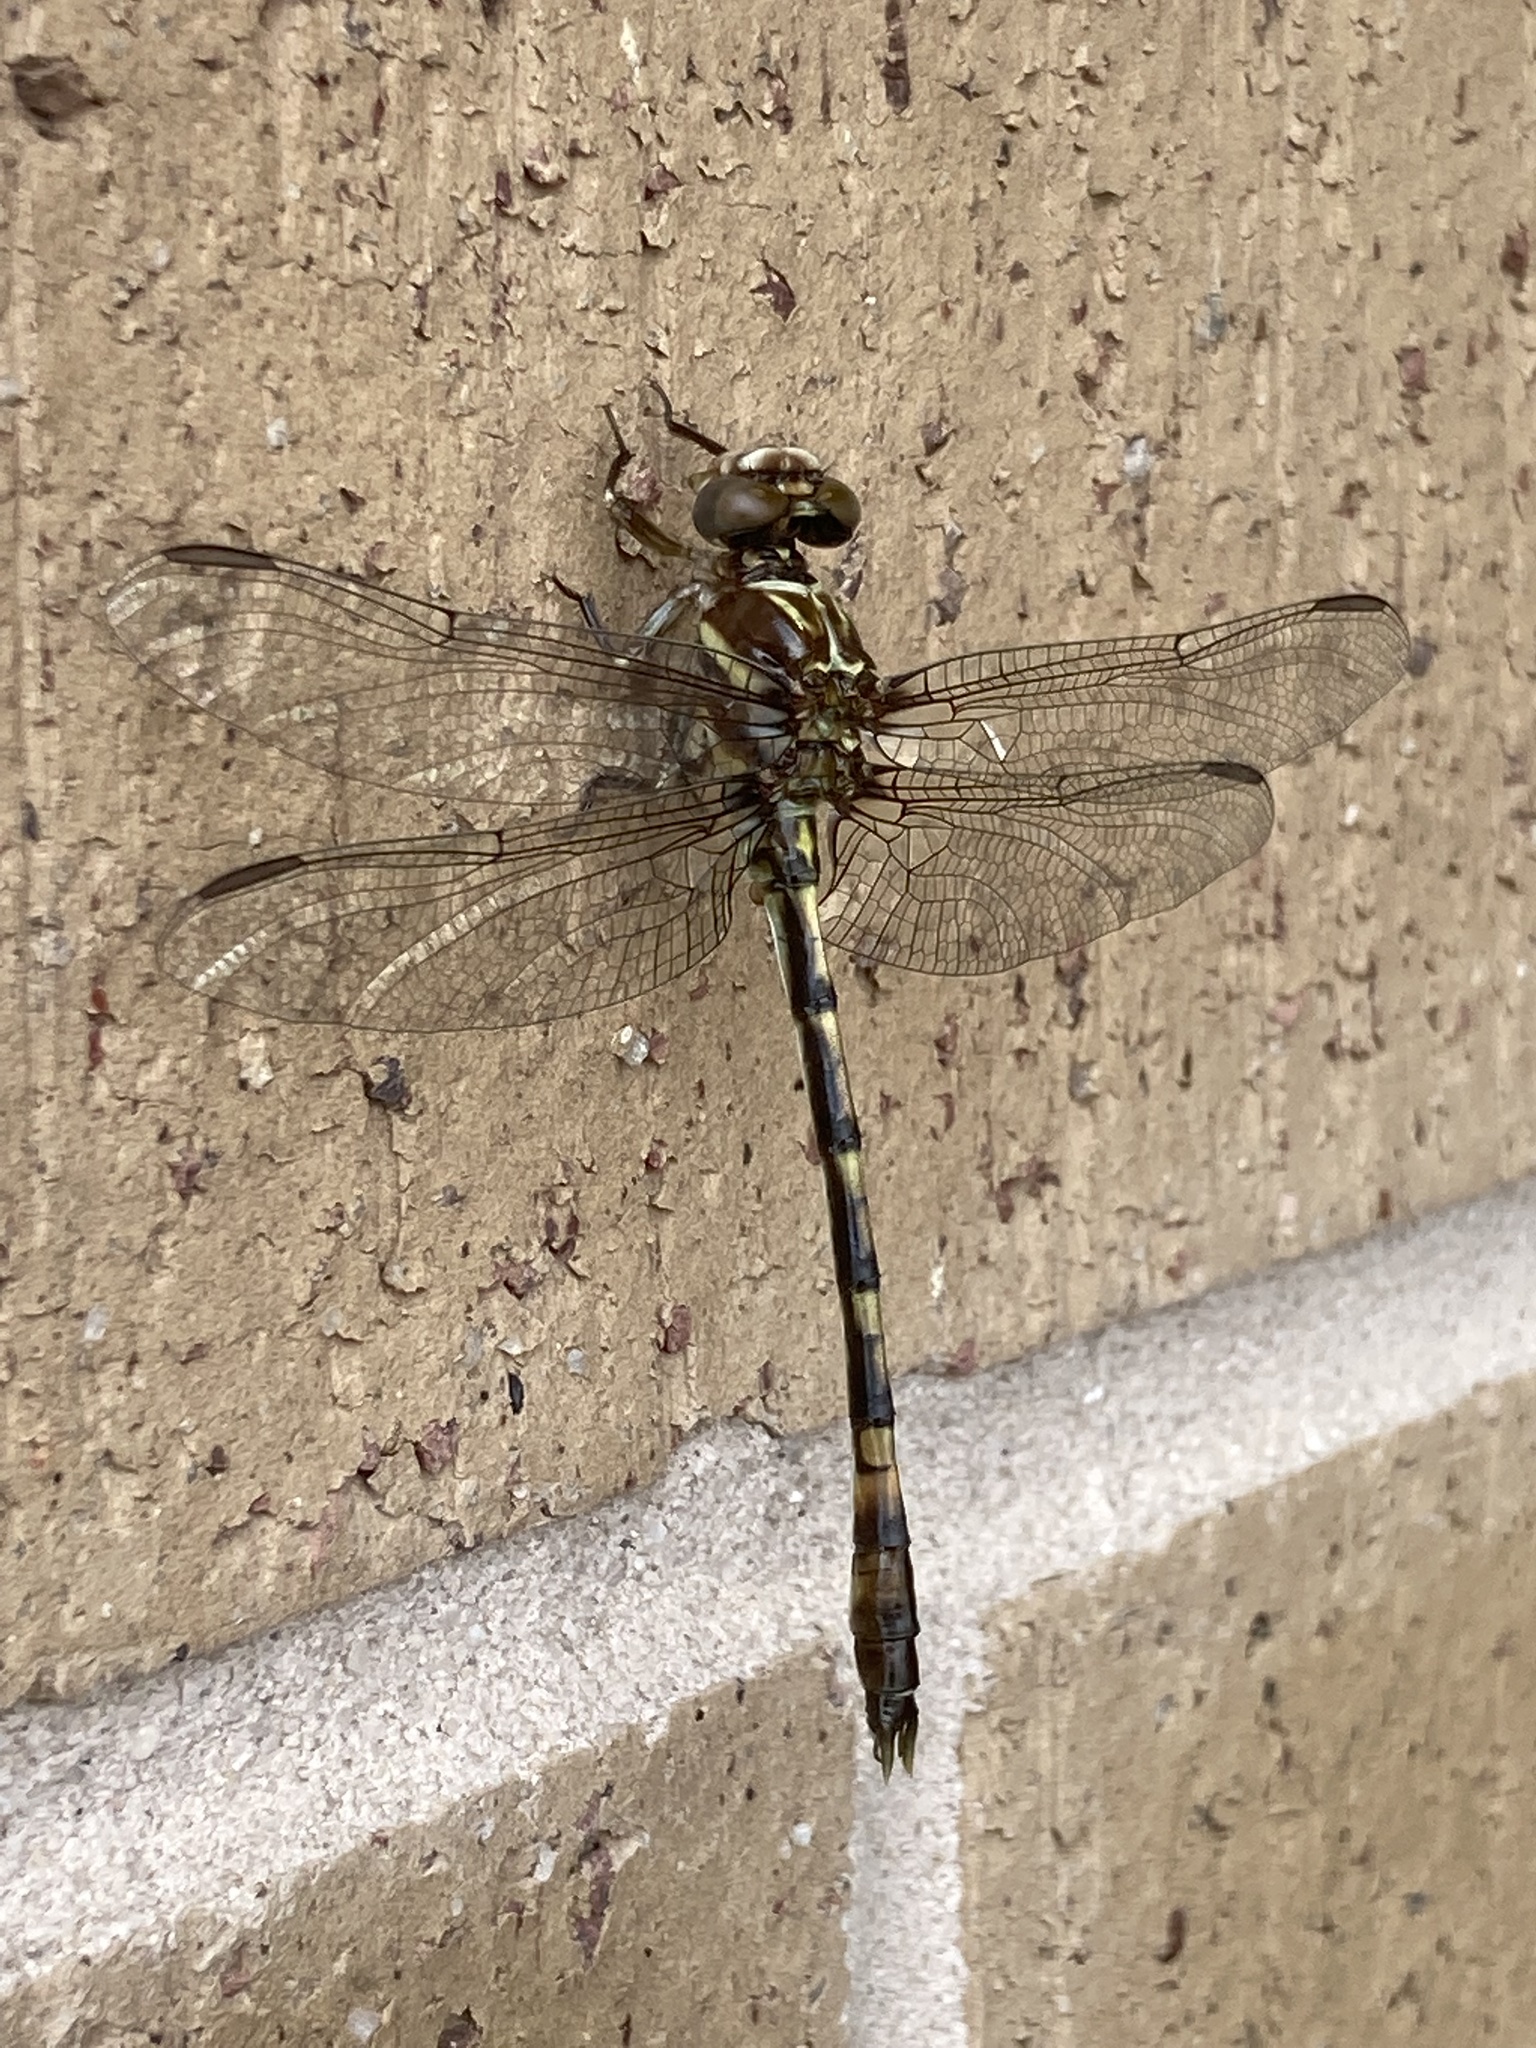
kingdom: Animalia
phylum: Arthropoda
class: Insecta
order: Odonata
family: Gomphidae
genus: Progomphus
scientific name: Progomphus alachuensis
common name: Tawny sanddragon
